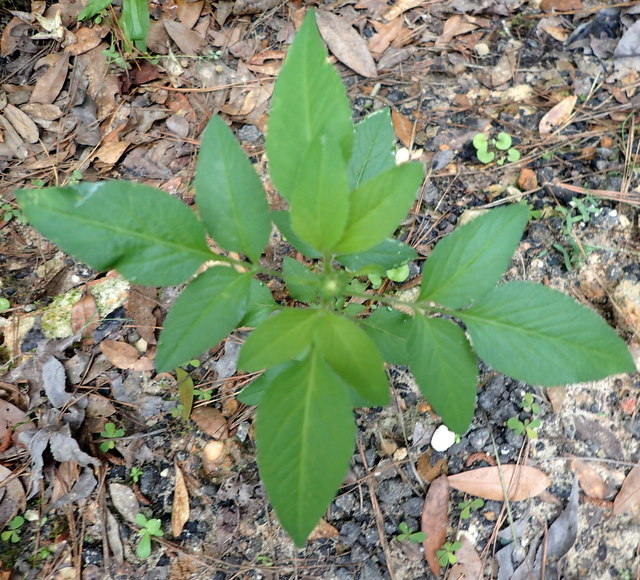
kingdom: Plantae
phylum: Tracheophyta
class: Magnoliopsida
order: Asterales
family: Asteraceae
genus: Bidens
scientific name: Bidens alba
